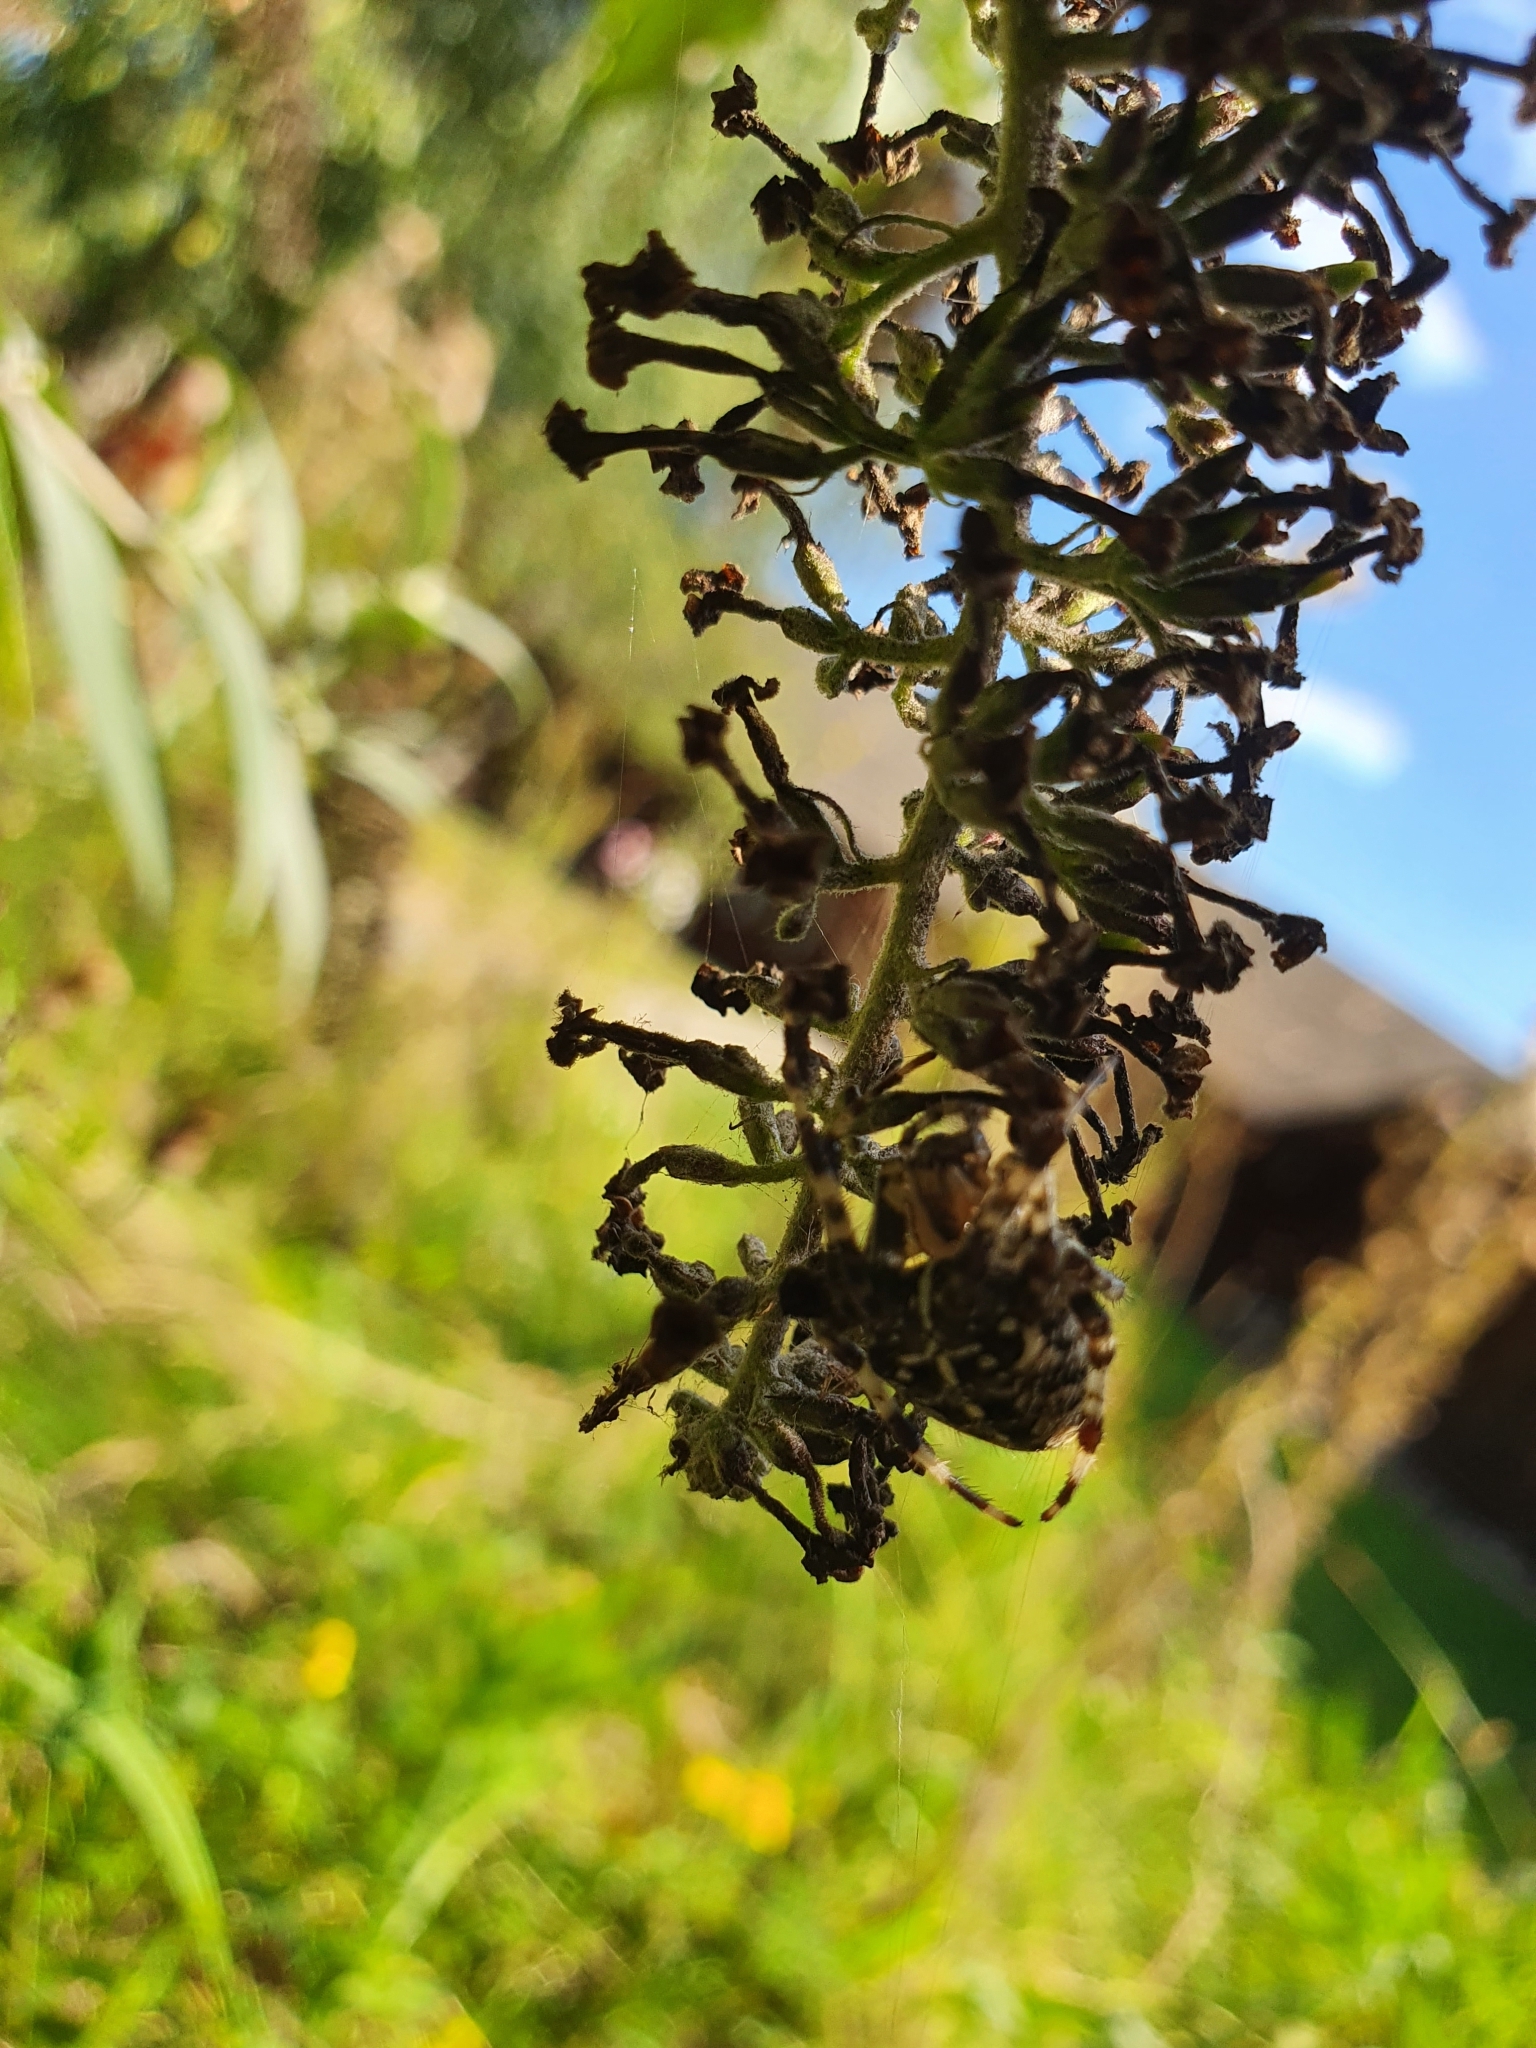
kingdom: Animalia
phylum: Arthropoda
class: Arachnida
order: Araneae
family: Araneidae
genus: Araneus
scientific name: Araneus diadematus
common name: Cross orbweaver
